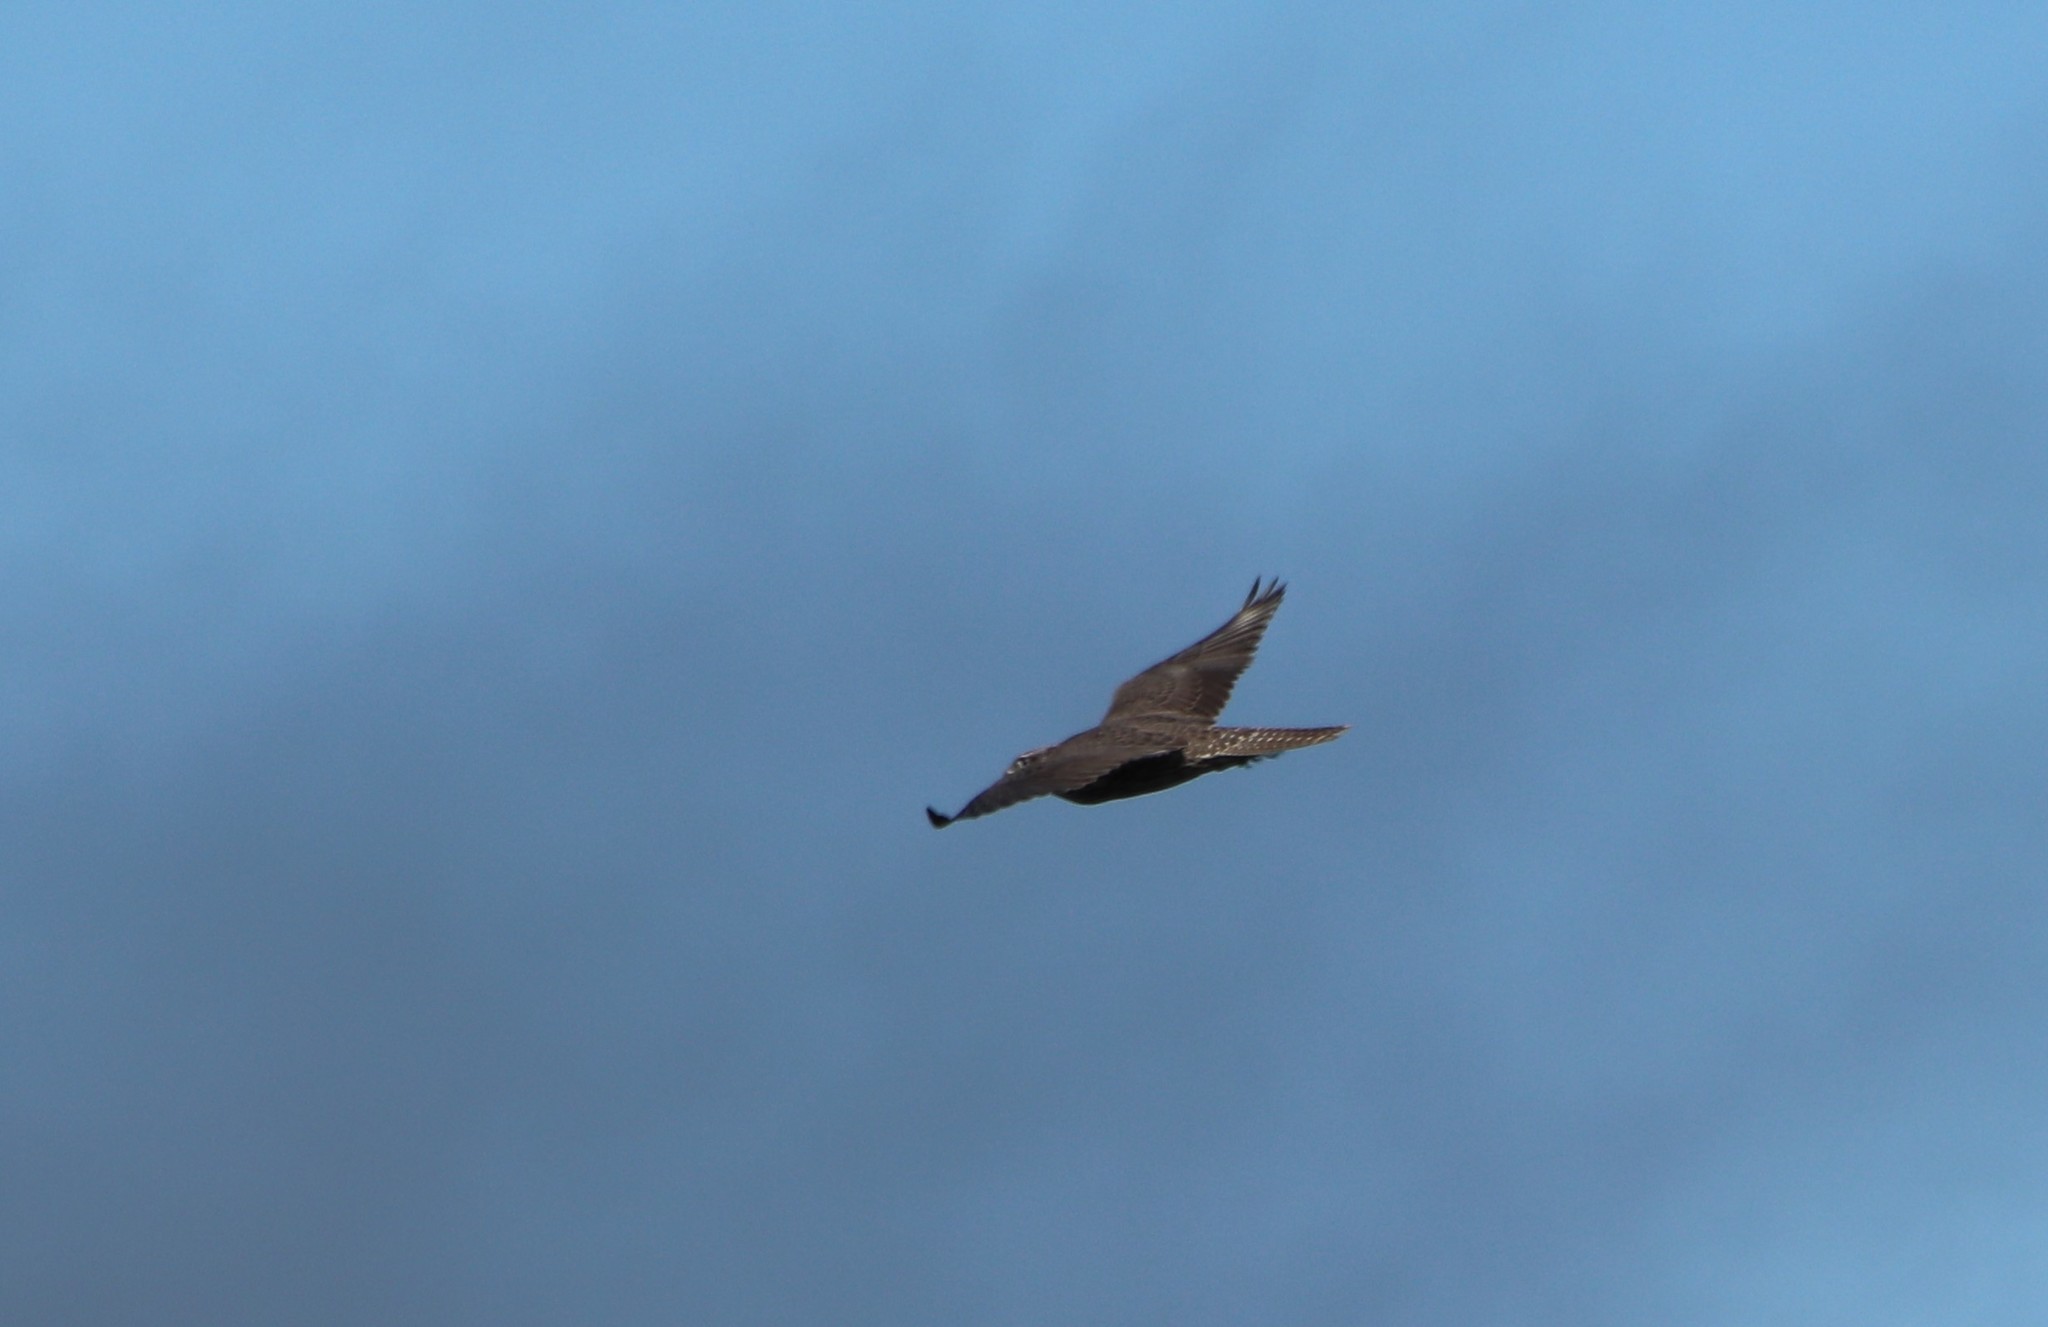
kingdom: Animalia
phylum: Chordata
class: Aves
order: Falconiformes
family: Falconidae
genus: Falco
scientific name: Falco rusticolus
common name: Gyrfalcon
